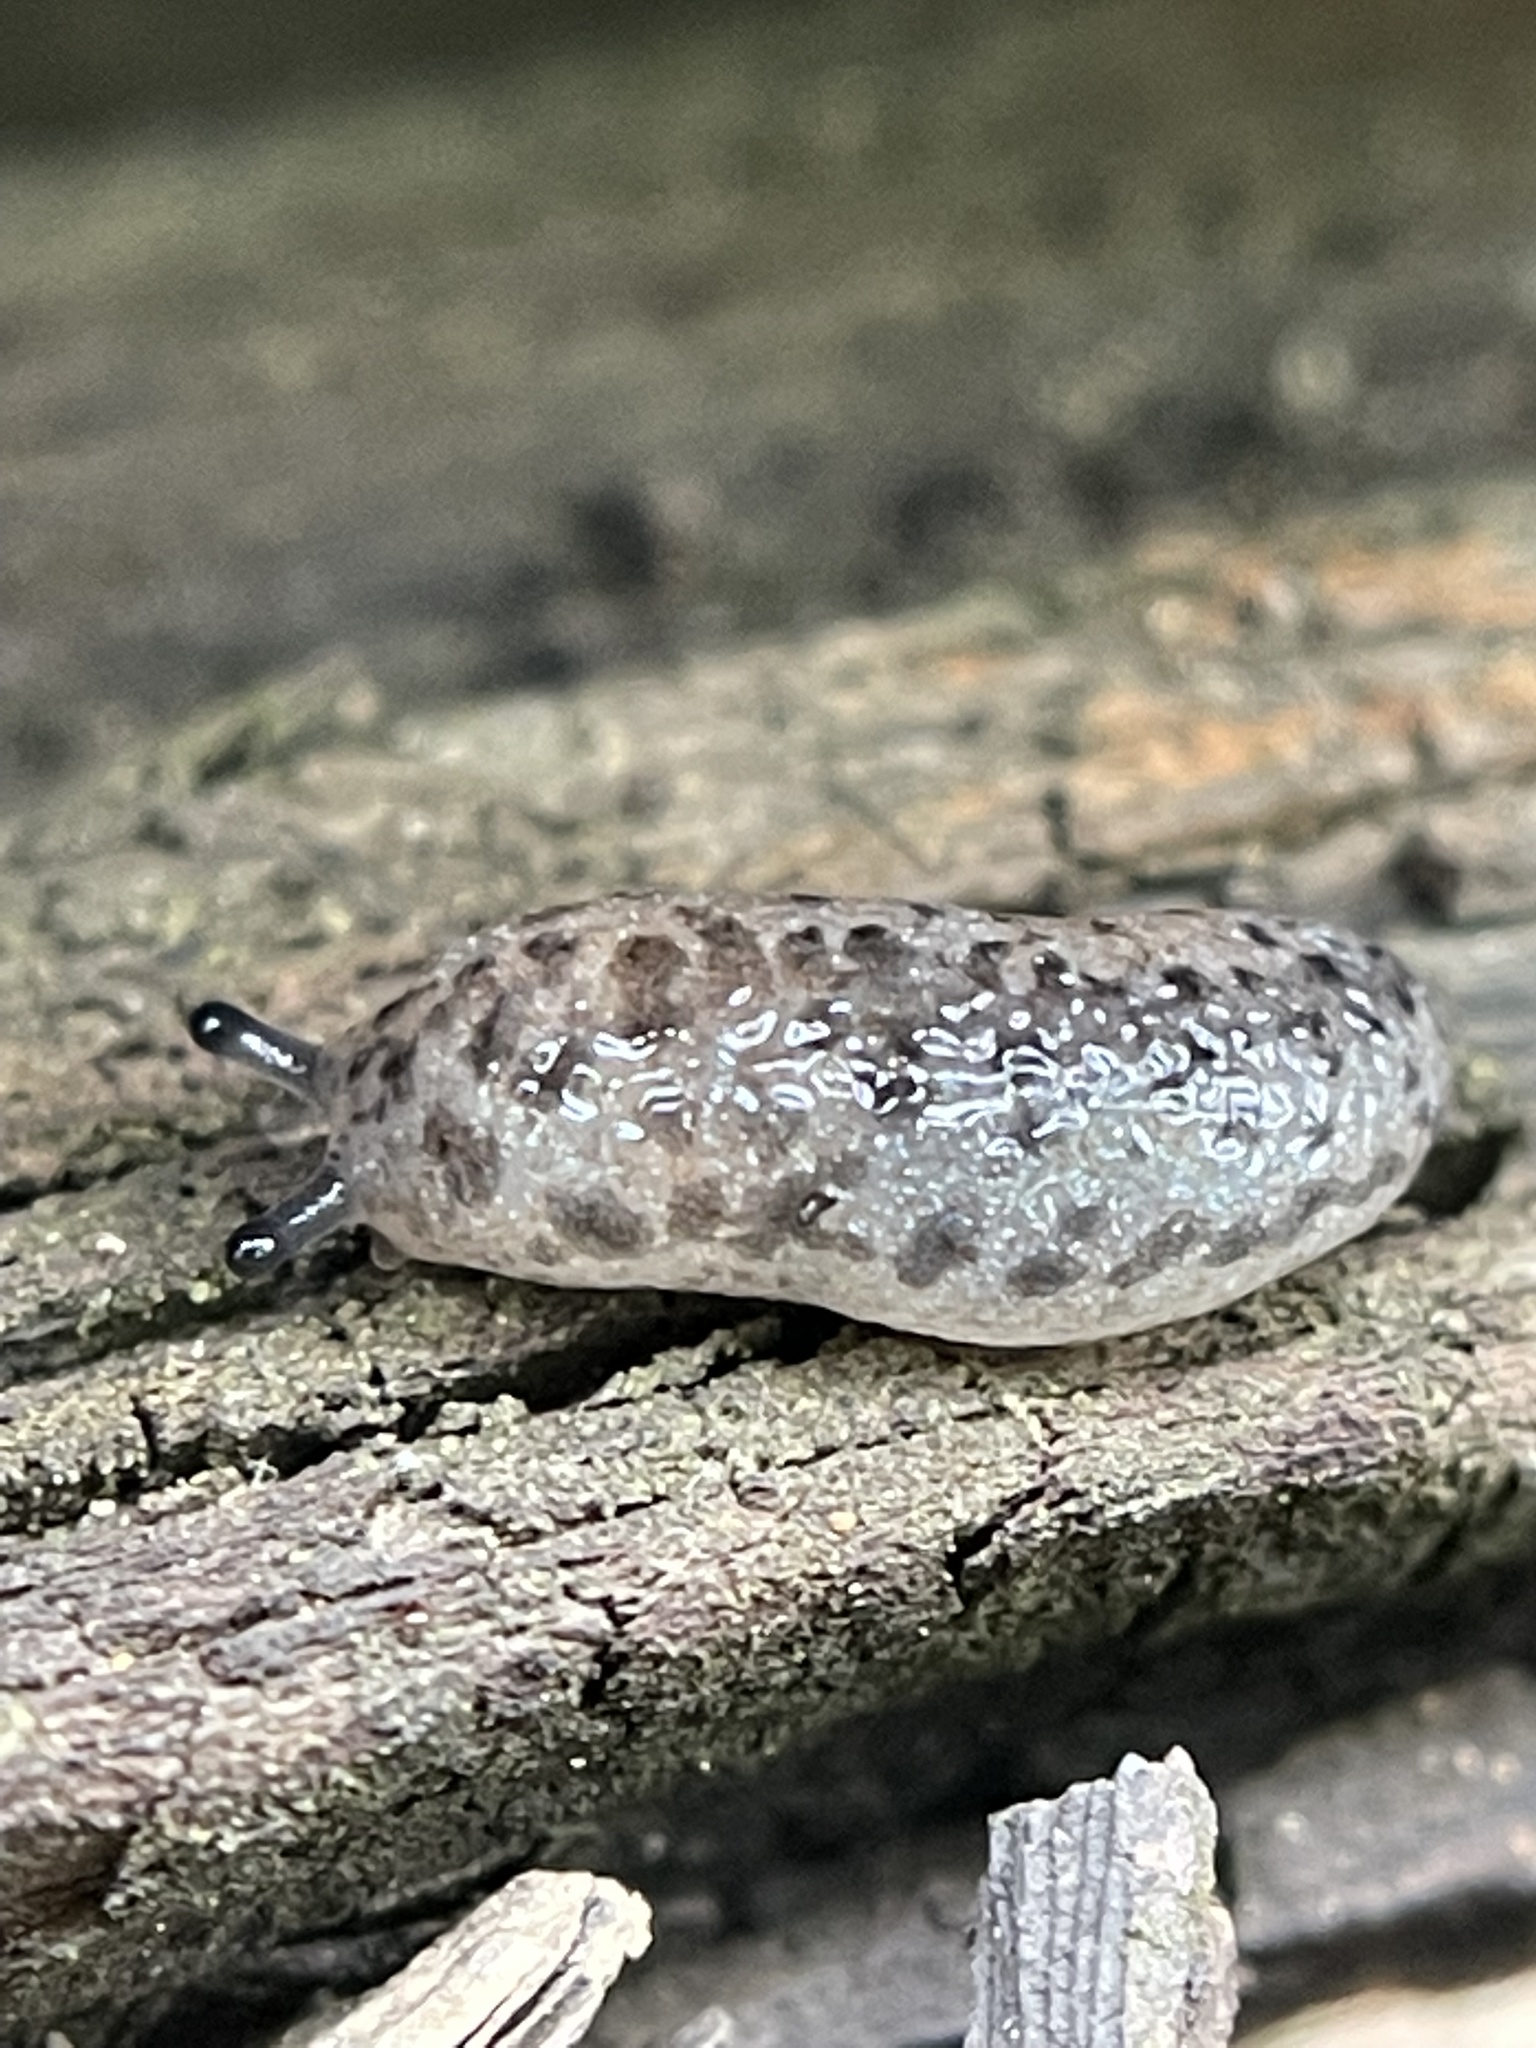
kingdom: Animalia
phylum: Mollusca
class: Gastropoda
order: Stylommatophora
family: Philomycidae
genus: Megapallifera
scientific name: Megapallifera mutabilis
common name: Changeable mantleslug
